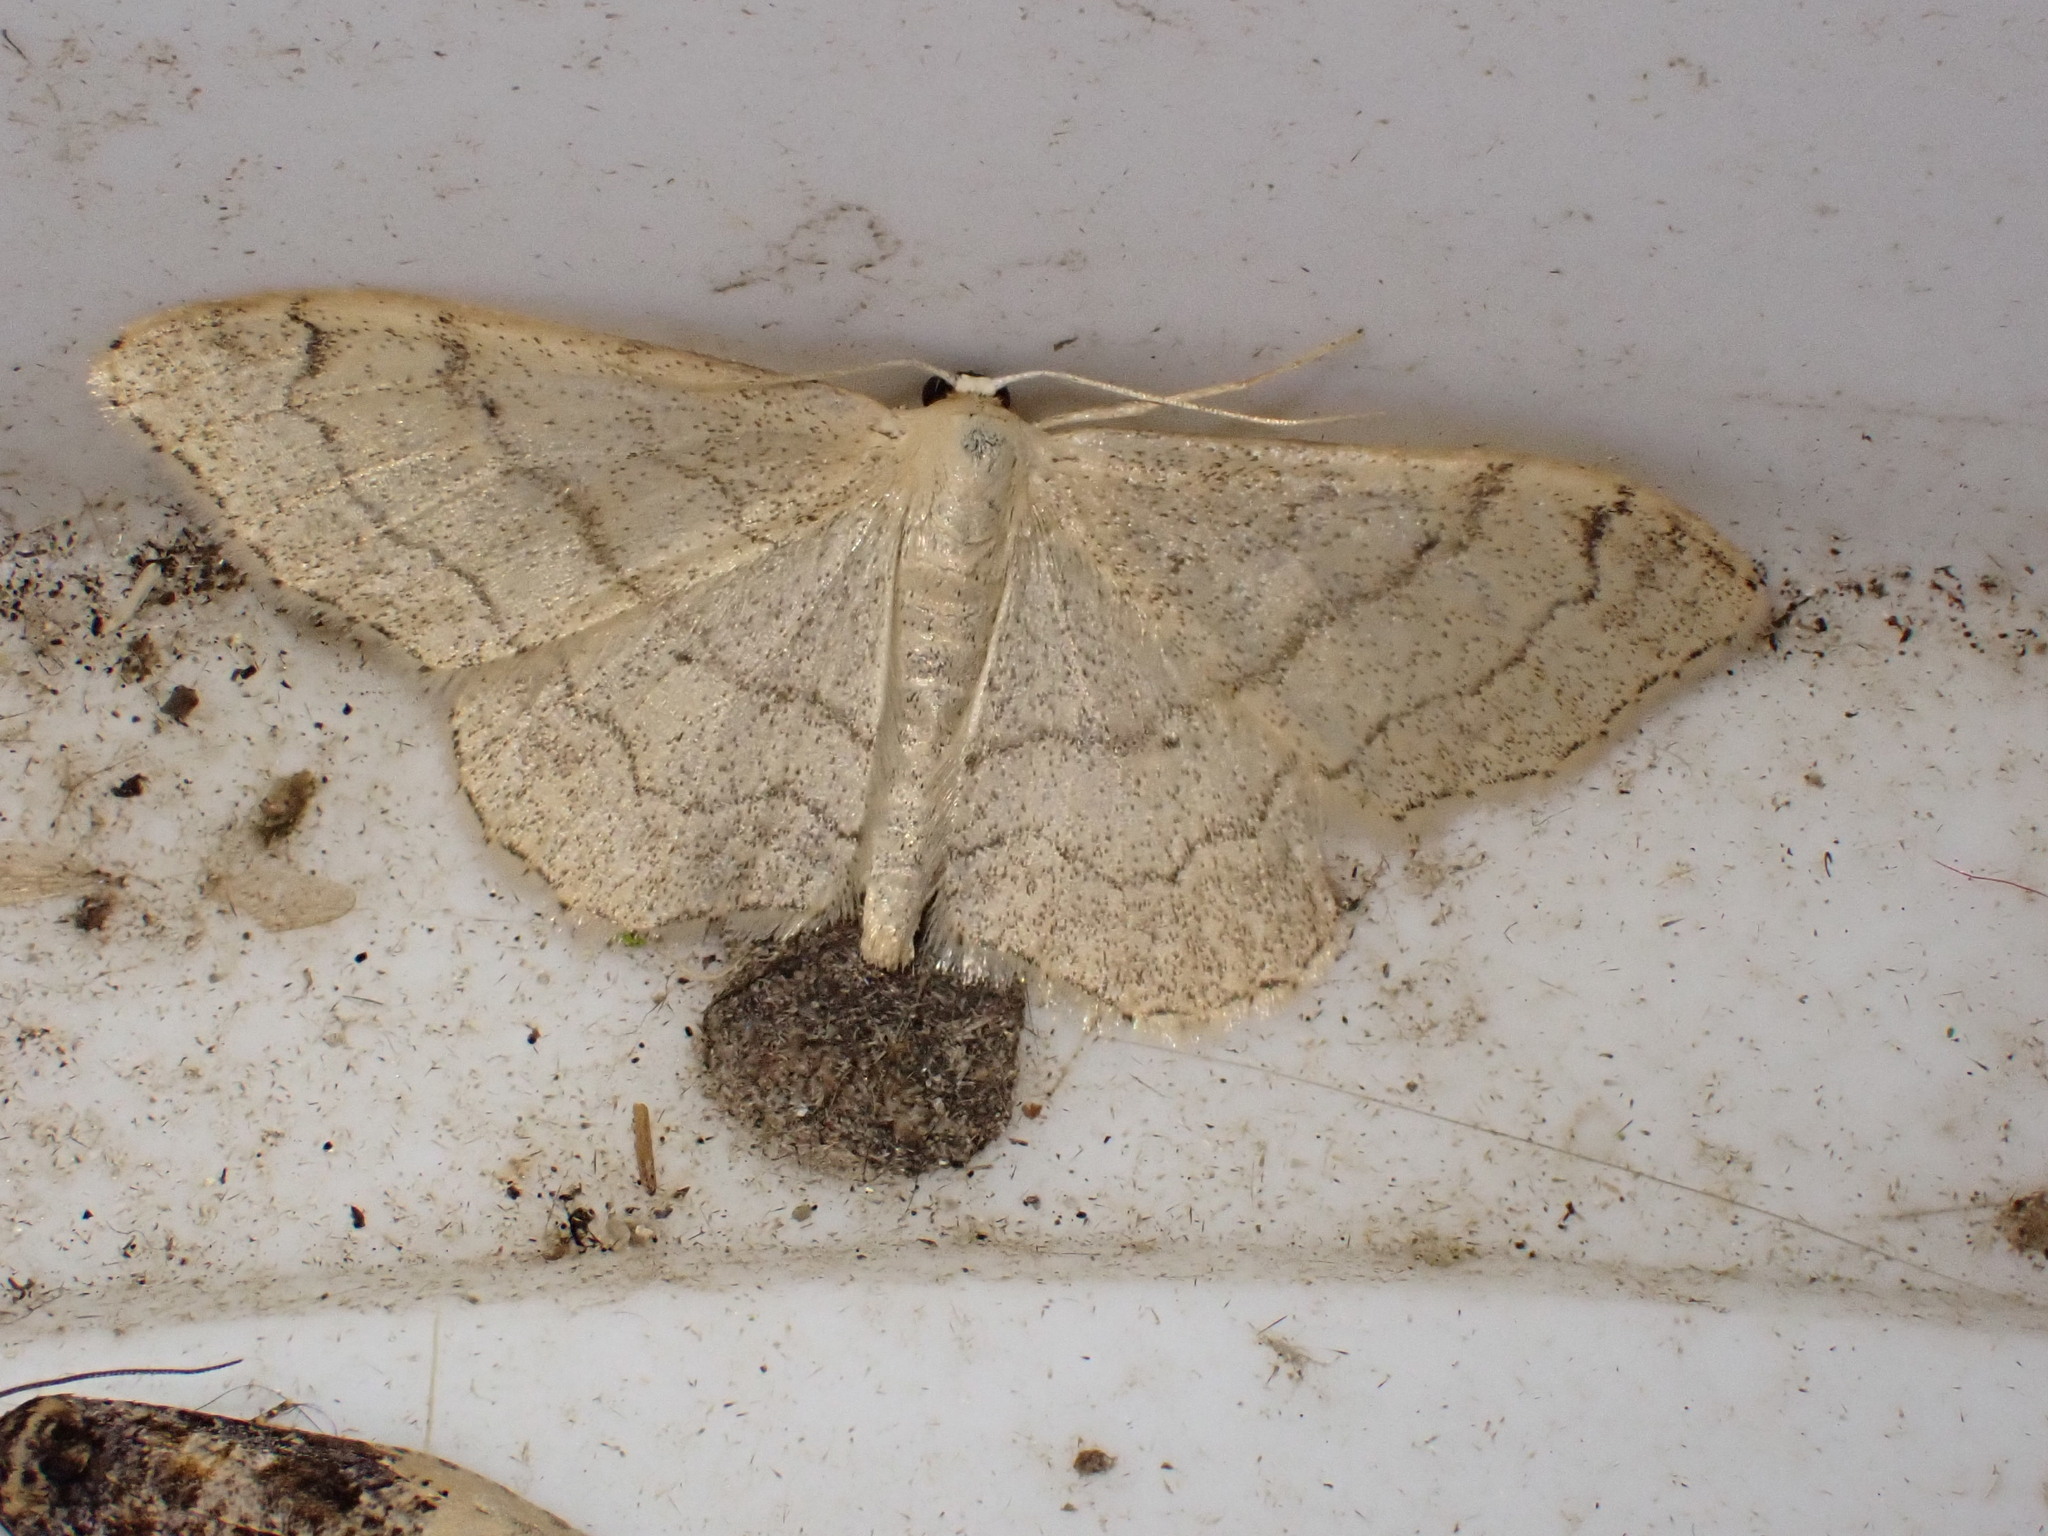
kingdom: Animalia
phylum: Arthropoda
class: Insecta
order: Lepidoptera
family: Geometridae
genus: Idaea
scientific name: Idaea aversata
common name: Riband wave
